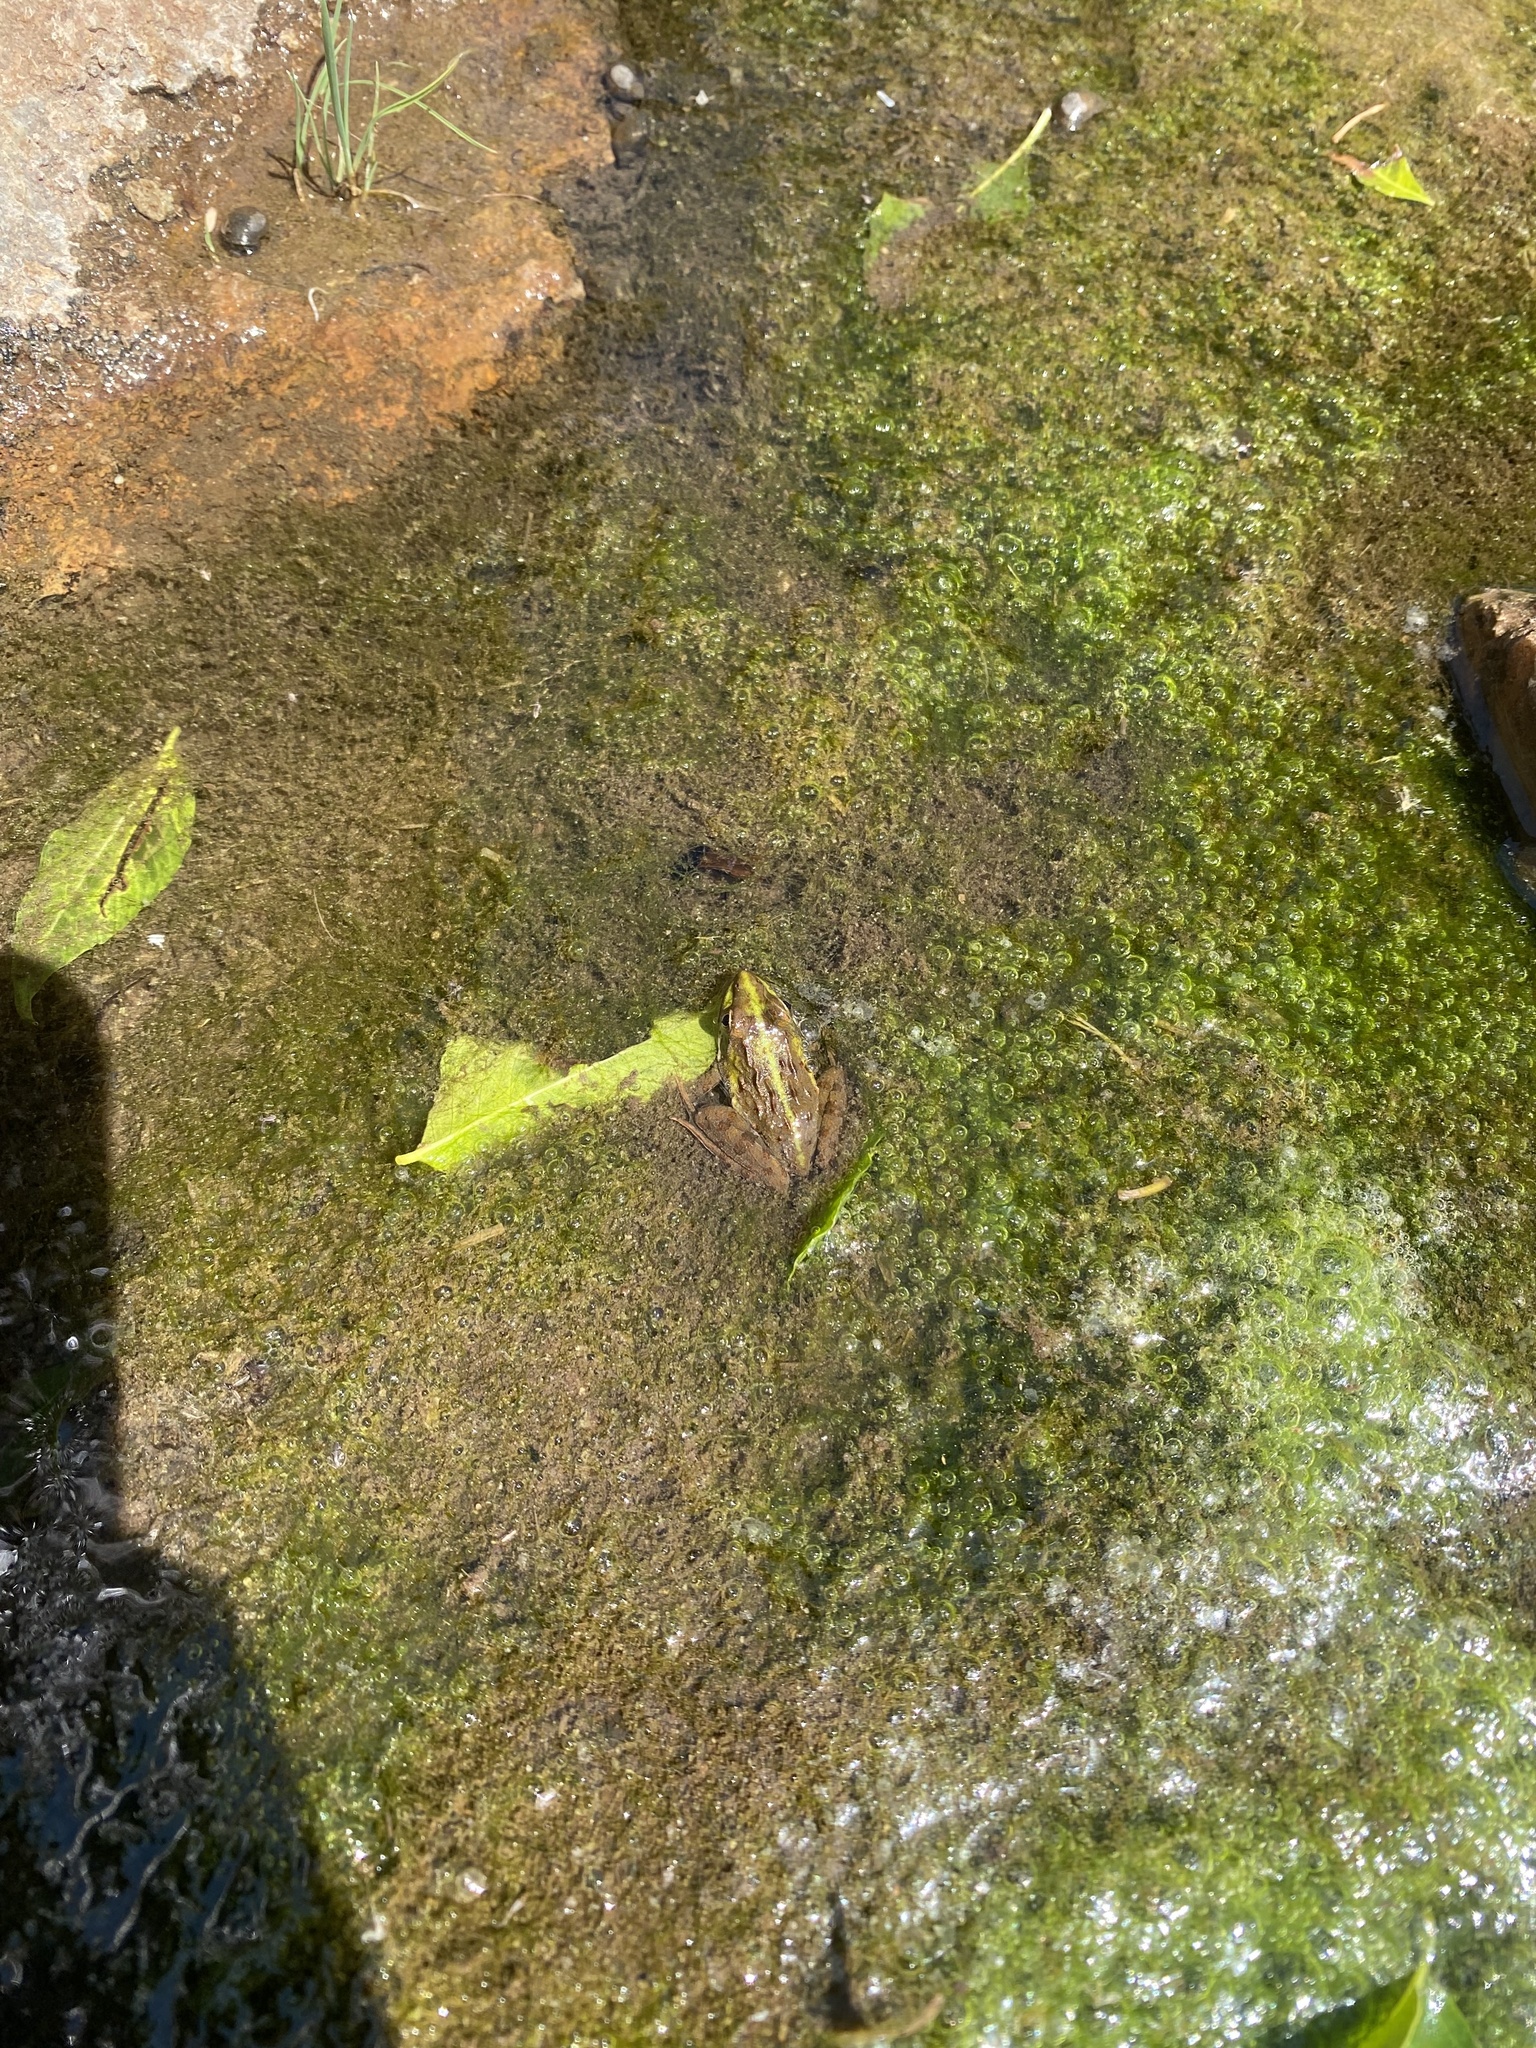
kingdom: Animalia
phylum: Chordata
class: Amphibia
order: Anura
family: Pyxicephalidae
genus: Amietia
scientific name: Amietia delalandii
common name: Delalande's river frog
